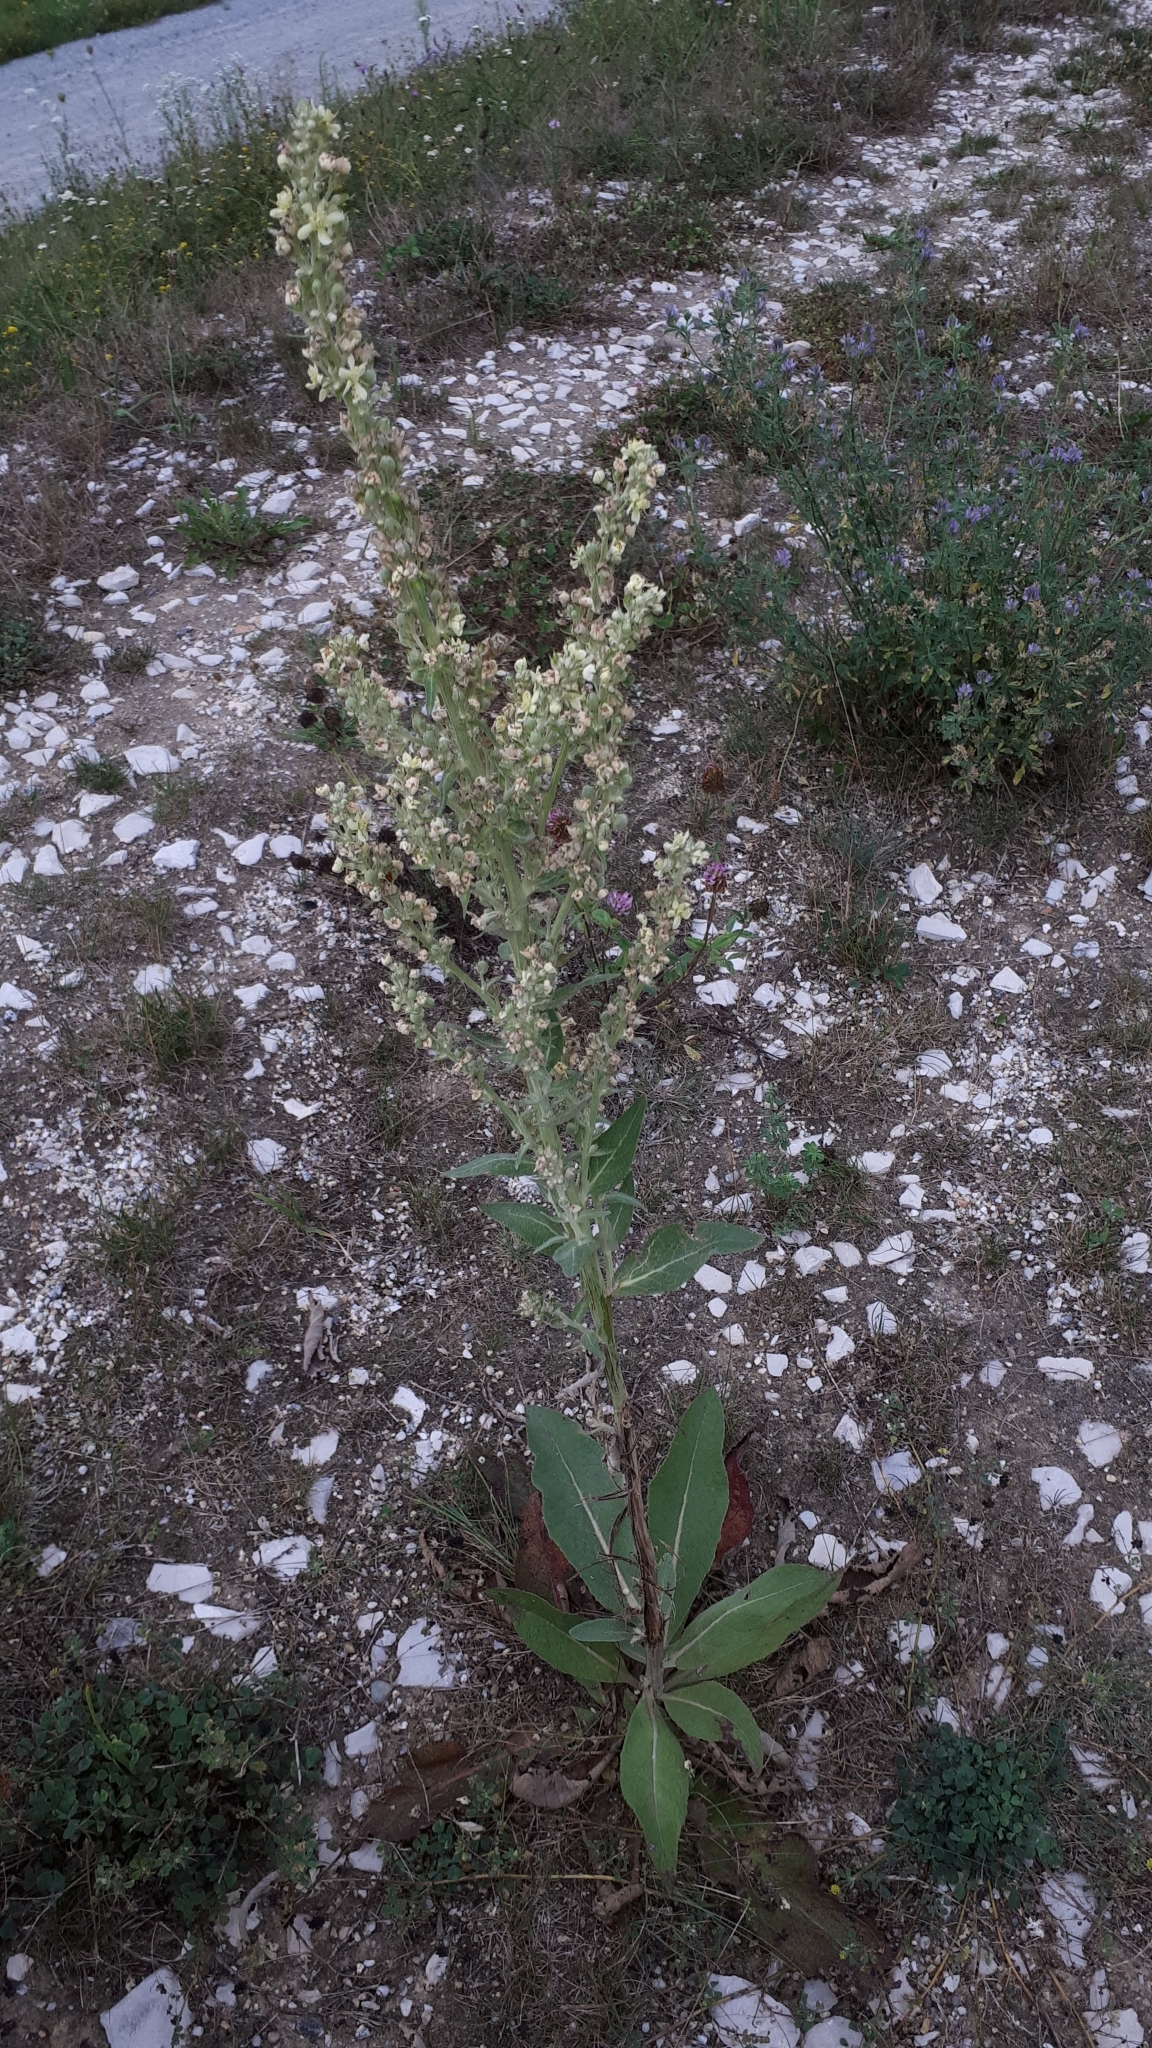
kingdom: Plantae
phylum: Tracheophyta
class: Magnoliopsida
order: Lamiales
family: Scrophulariaceae
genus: Verbascum
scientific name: Verbascum lychnitis
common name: White mullein
